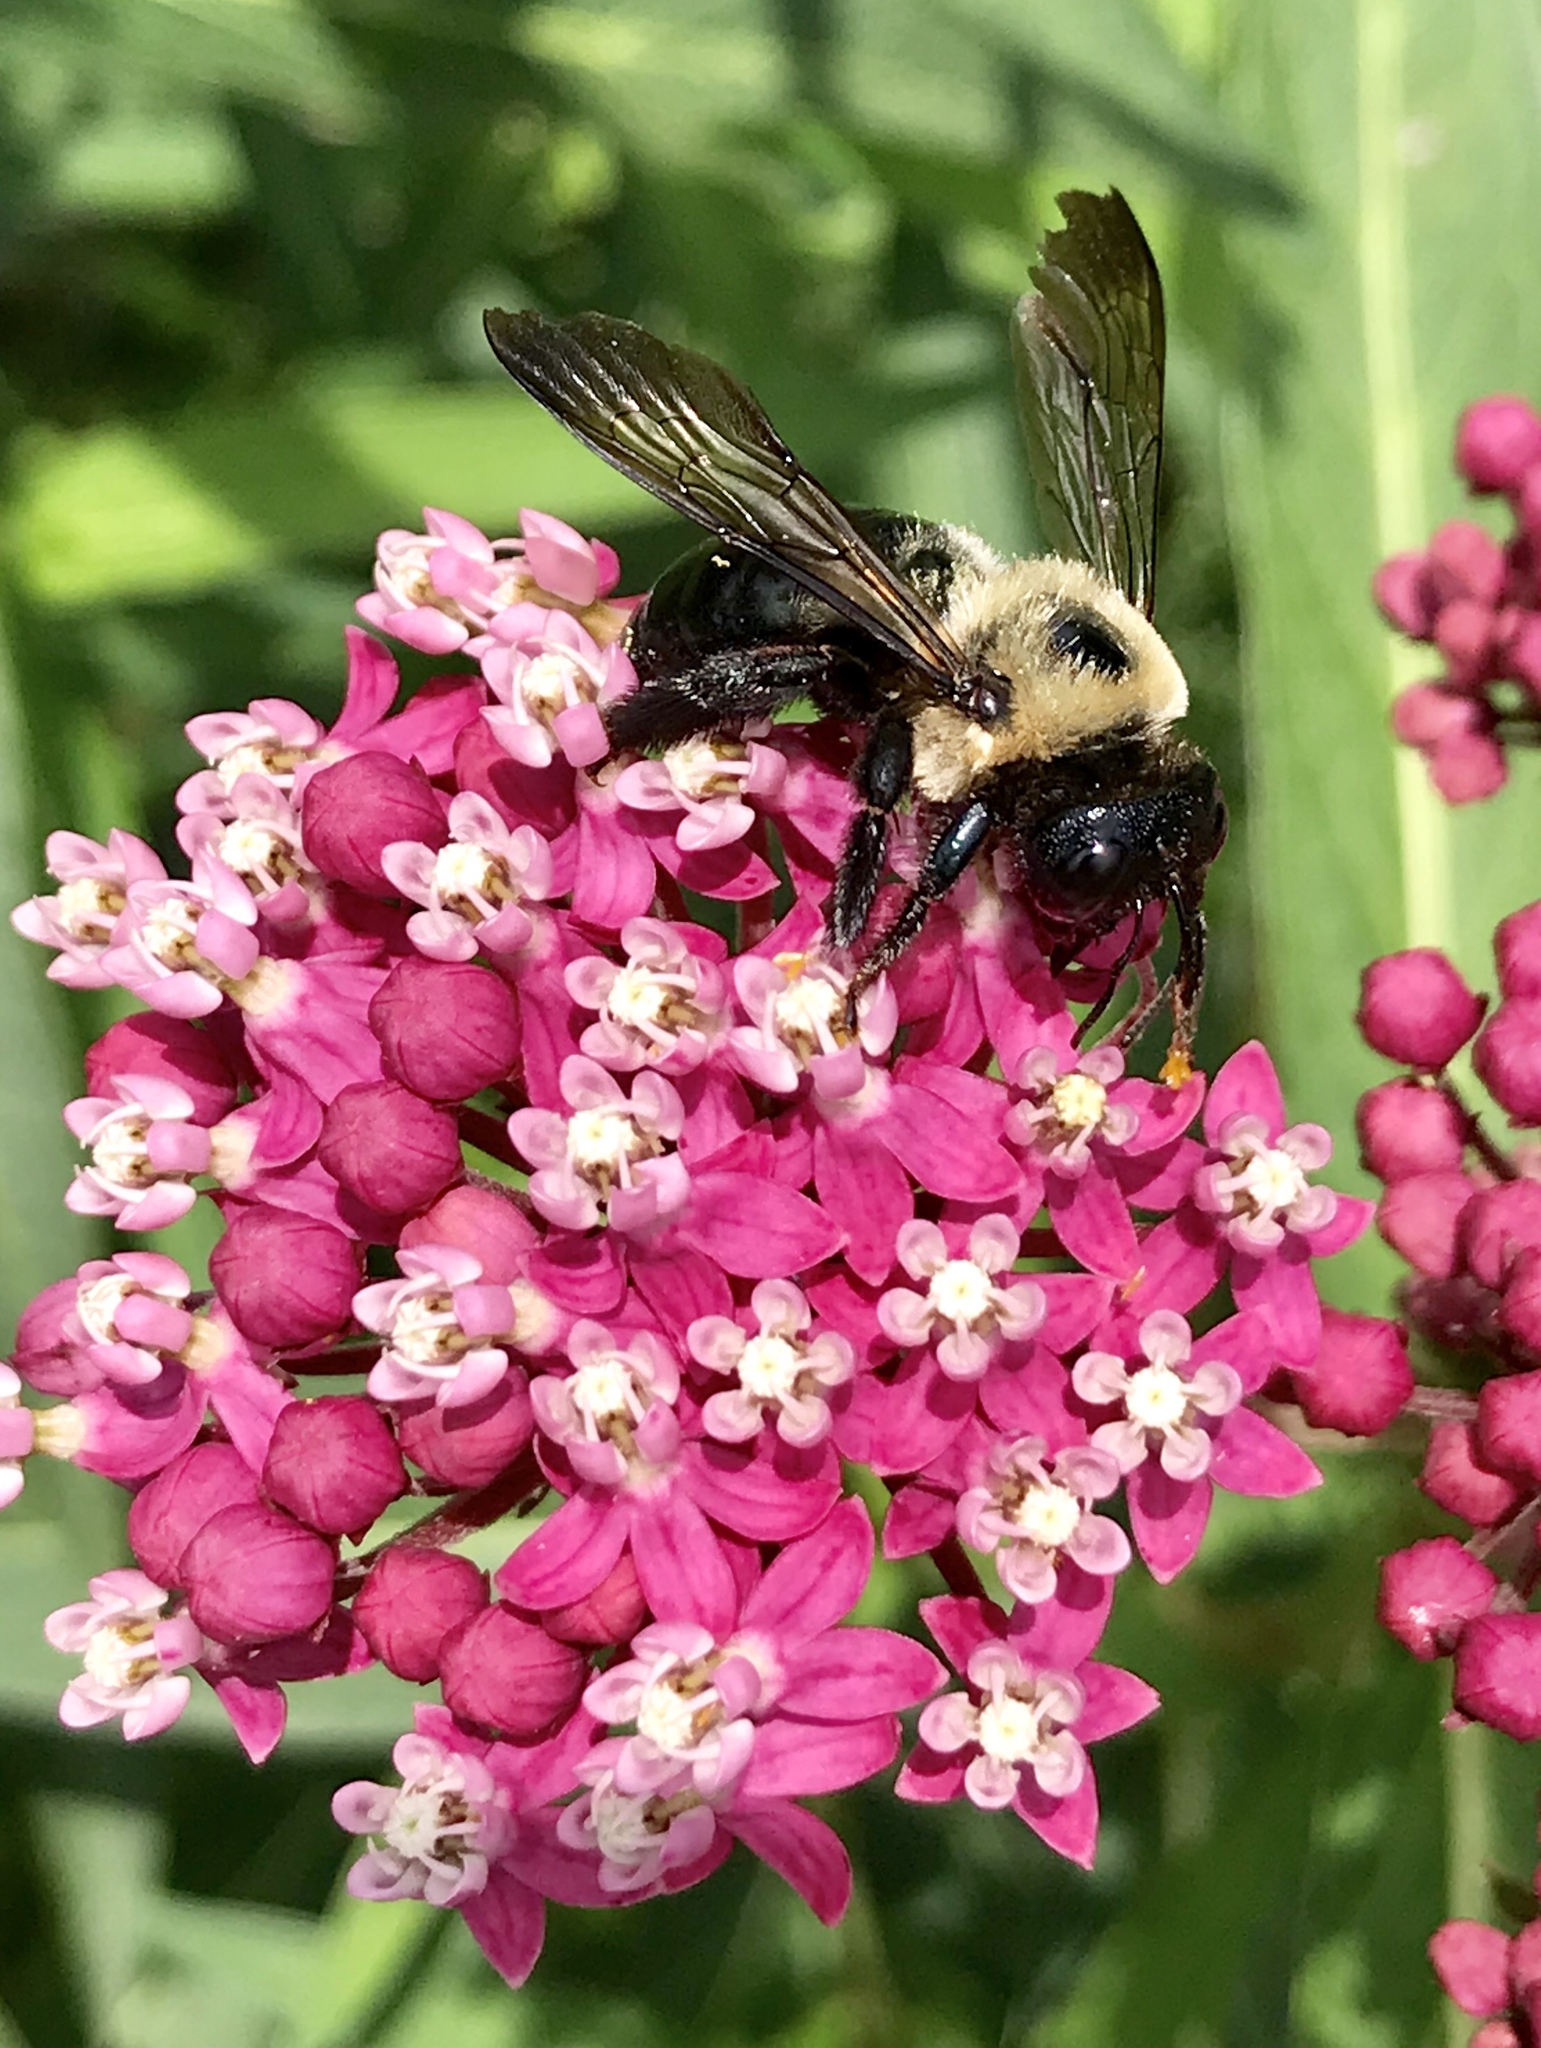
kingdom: Animalia
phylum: Arthropoda
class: Insecta
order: Hymenoptera
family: Apidae
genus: Xylocopa
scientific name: Xylocopa virginica
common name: Carpenter bee
